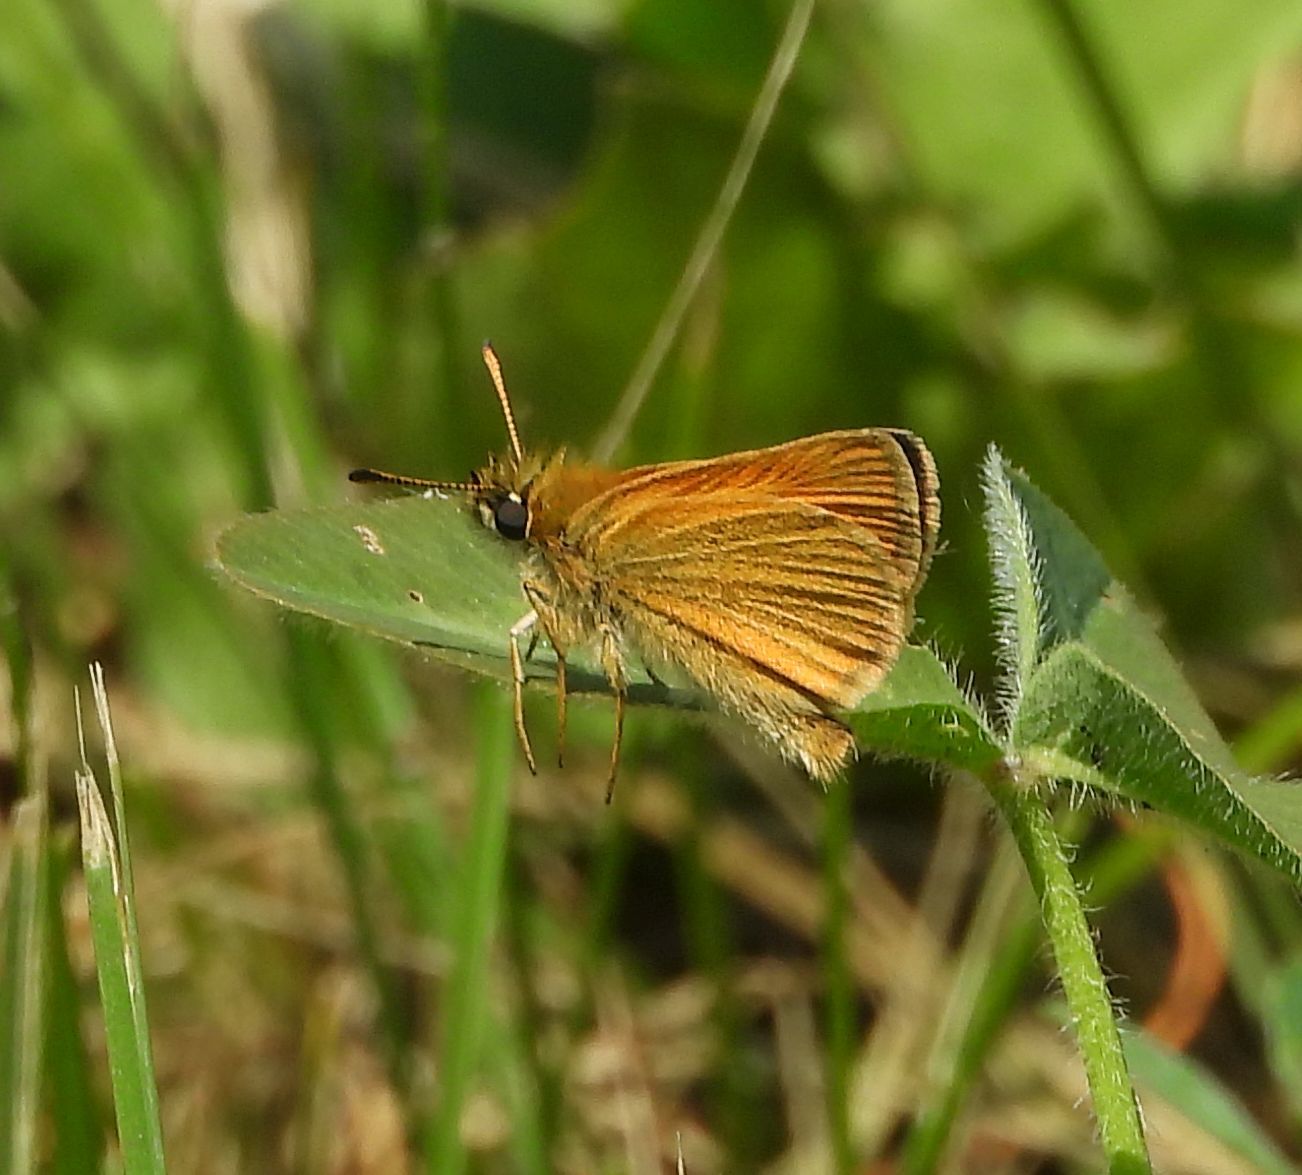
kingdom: Animalia
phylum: Arthropoda
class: Insecta
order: Lepidoptera
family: Hesperiidae
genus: Thymelicus
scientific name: Thymelicus lineola
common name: Essex skipper
